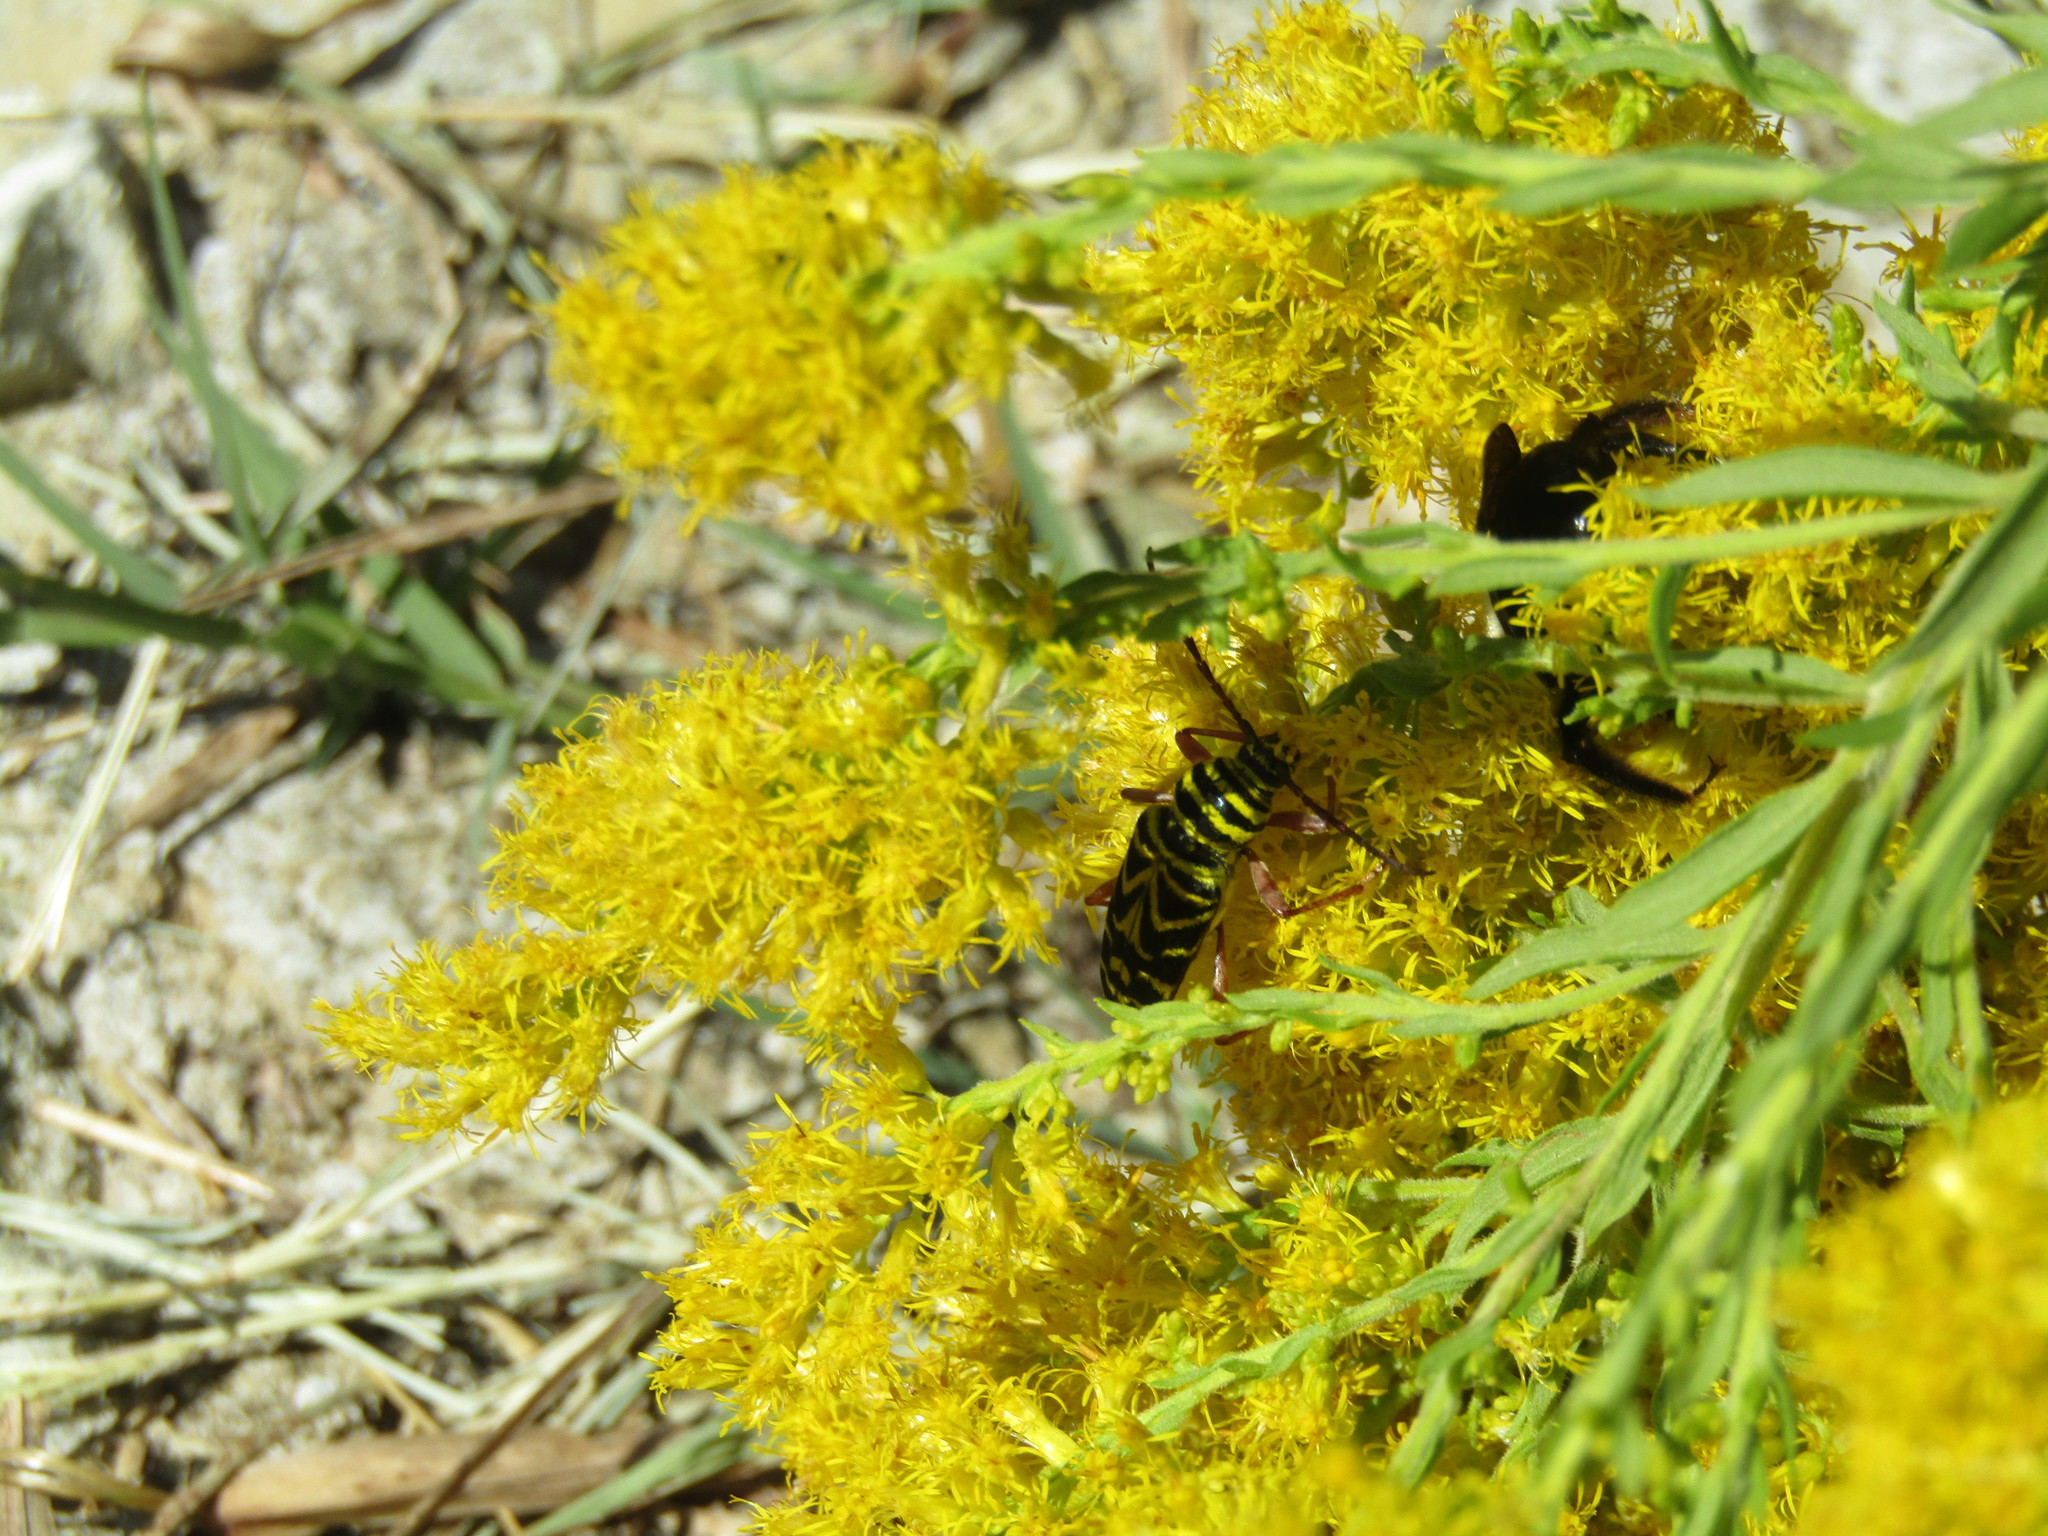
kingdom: Animalia
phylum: Arthropoda
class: Insecta
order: Coleoptera
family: Cerambycidae
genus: Megacyllene
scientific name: Megacyllene robiniae
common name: Locust borer
